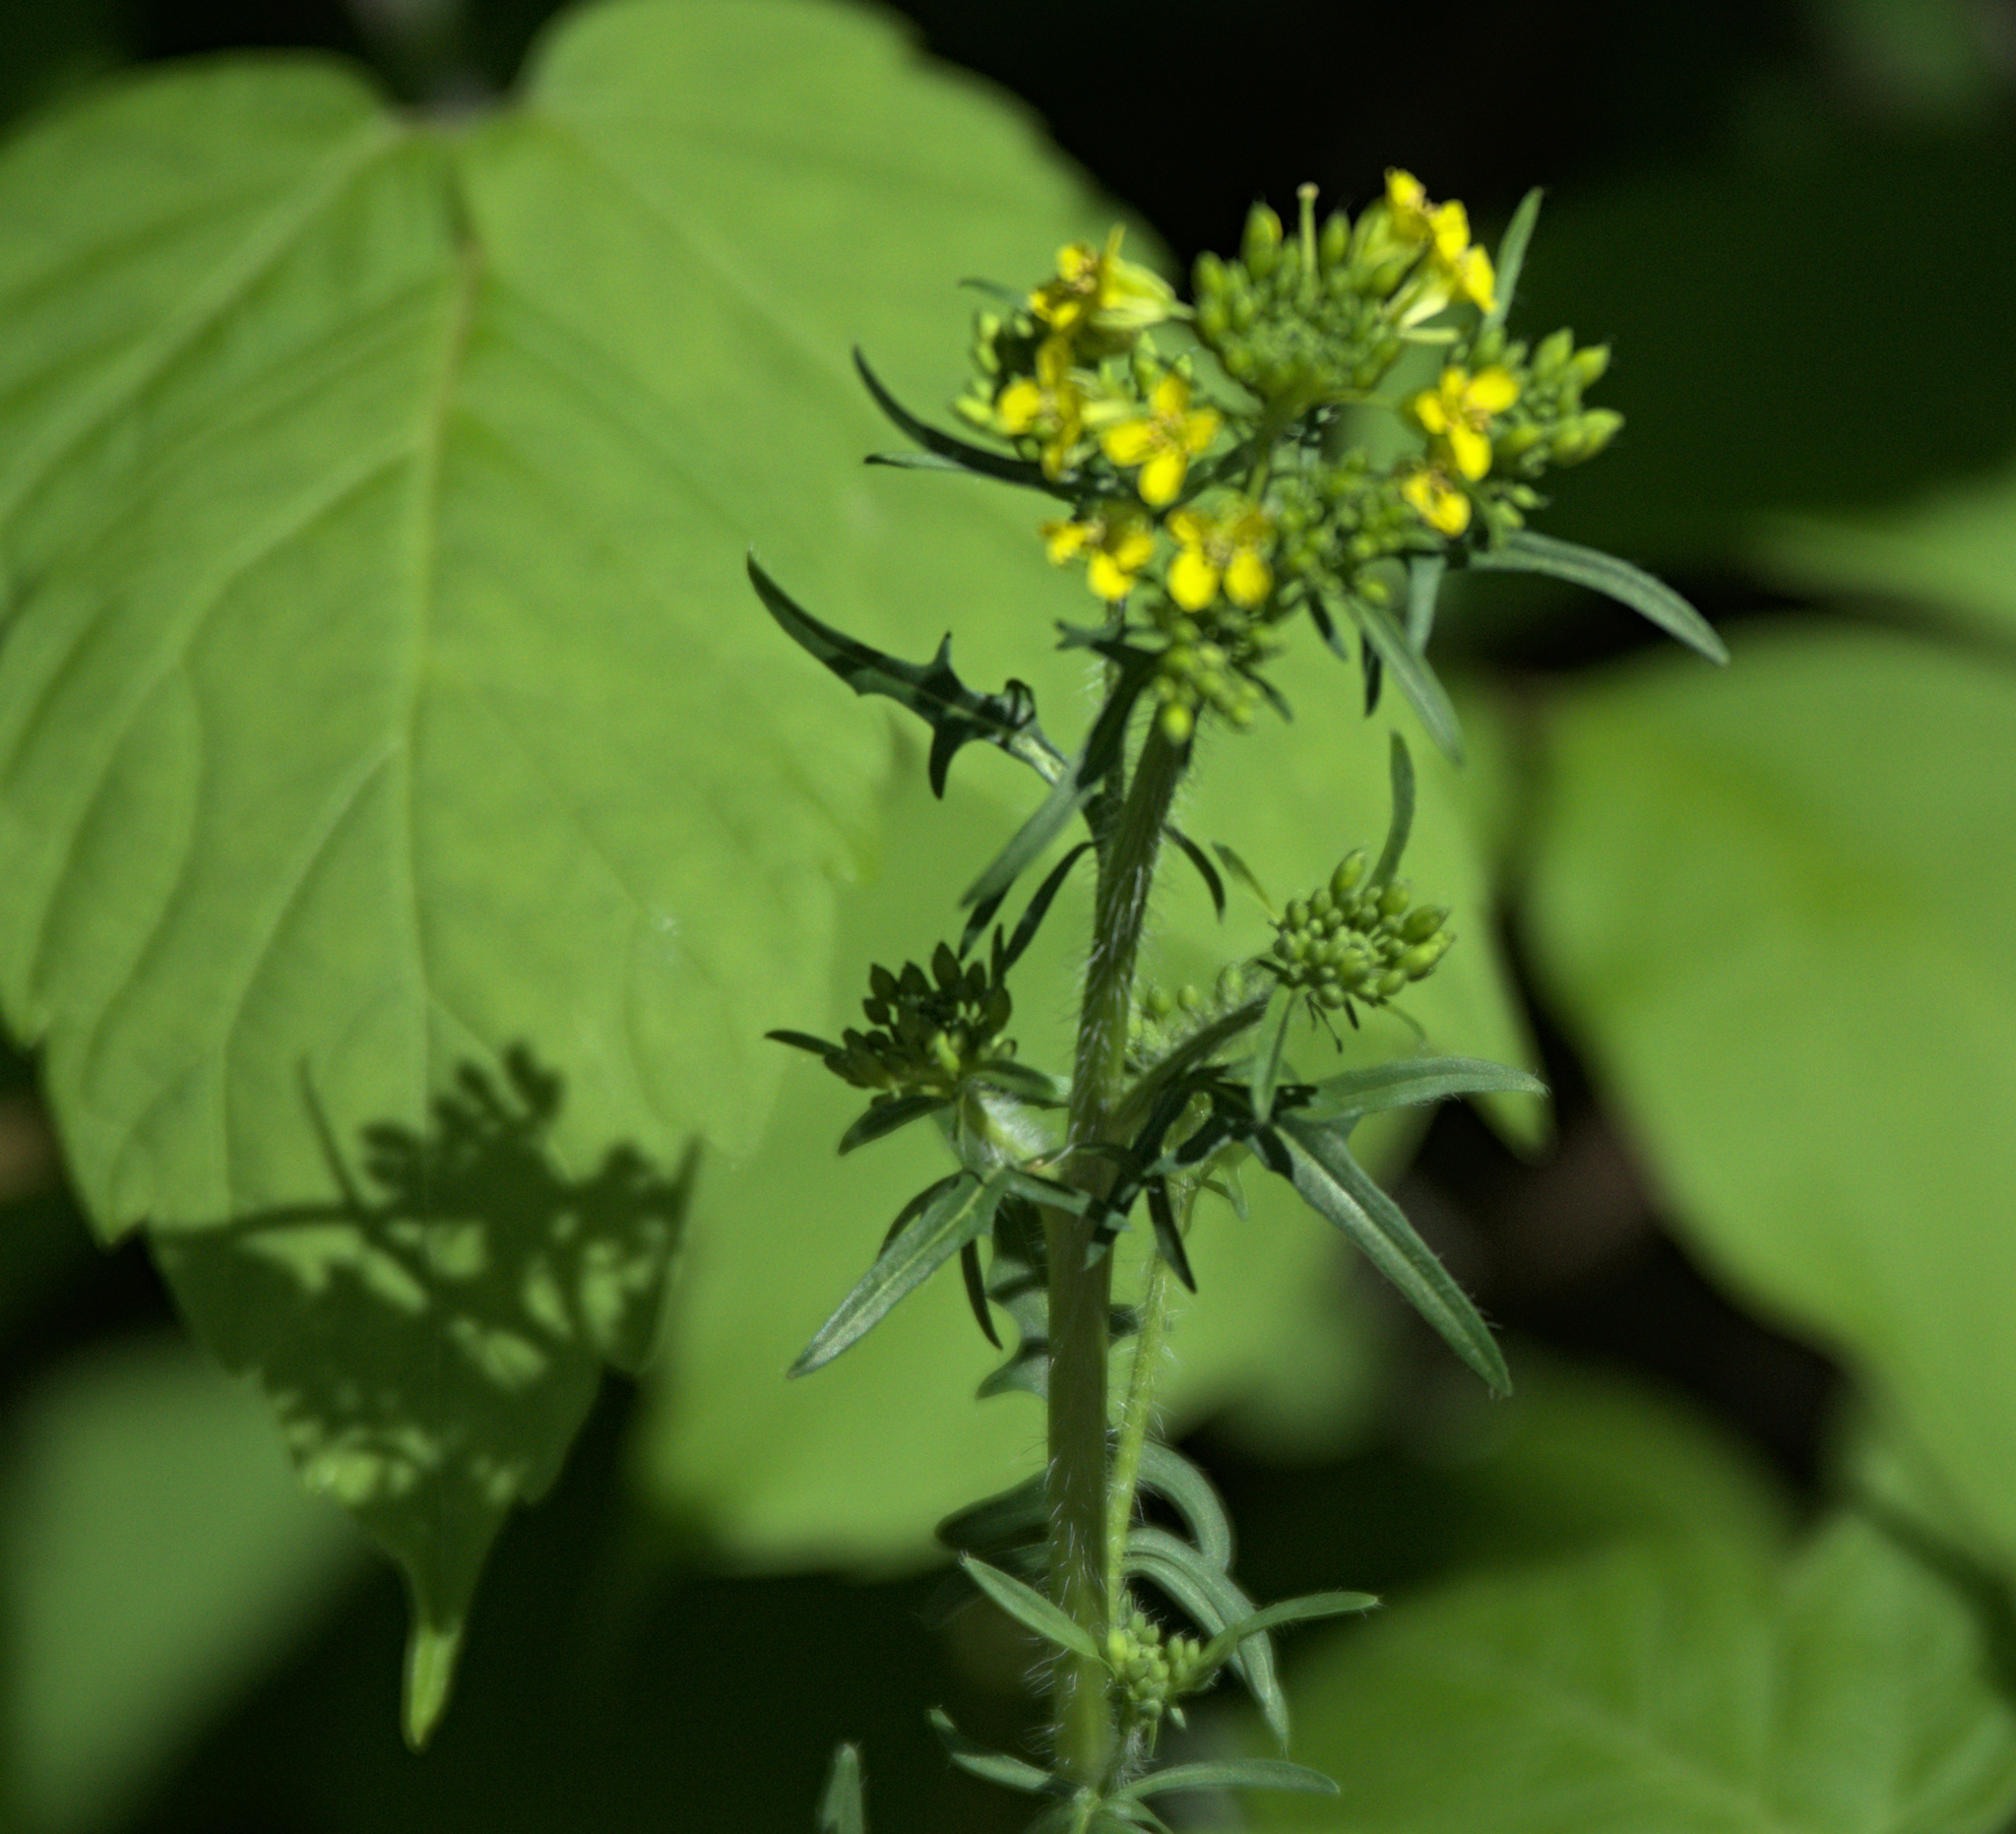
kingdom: Plantae
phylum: Tracheophyta
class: Magnoliopsida
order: Brassicales
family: Brassicaceae
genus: Sisymbrium
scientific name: Sisymbrium loeselii
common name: False london-rocket
